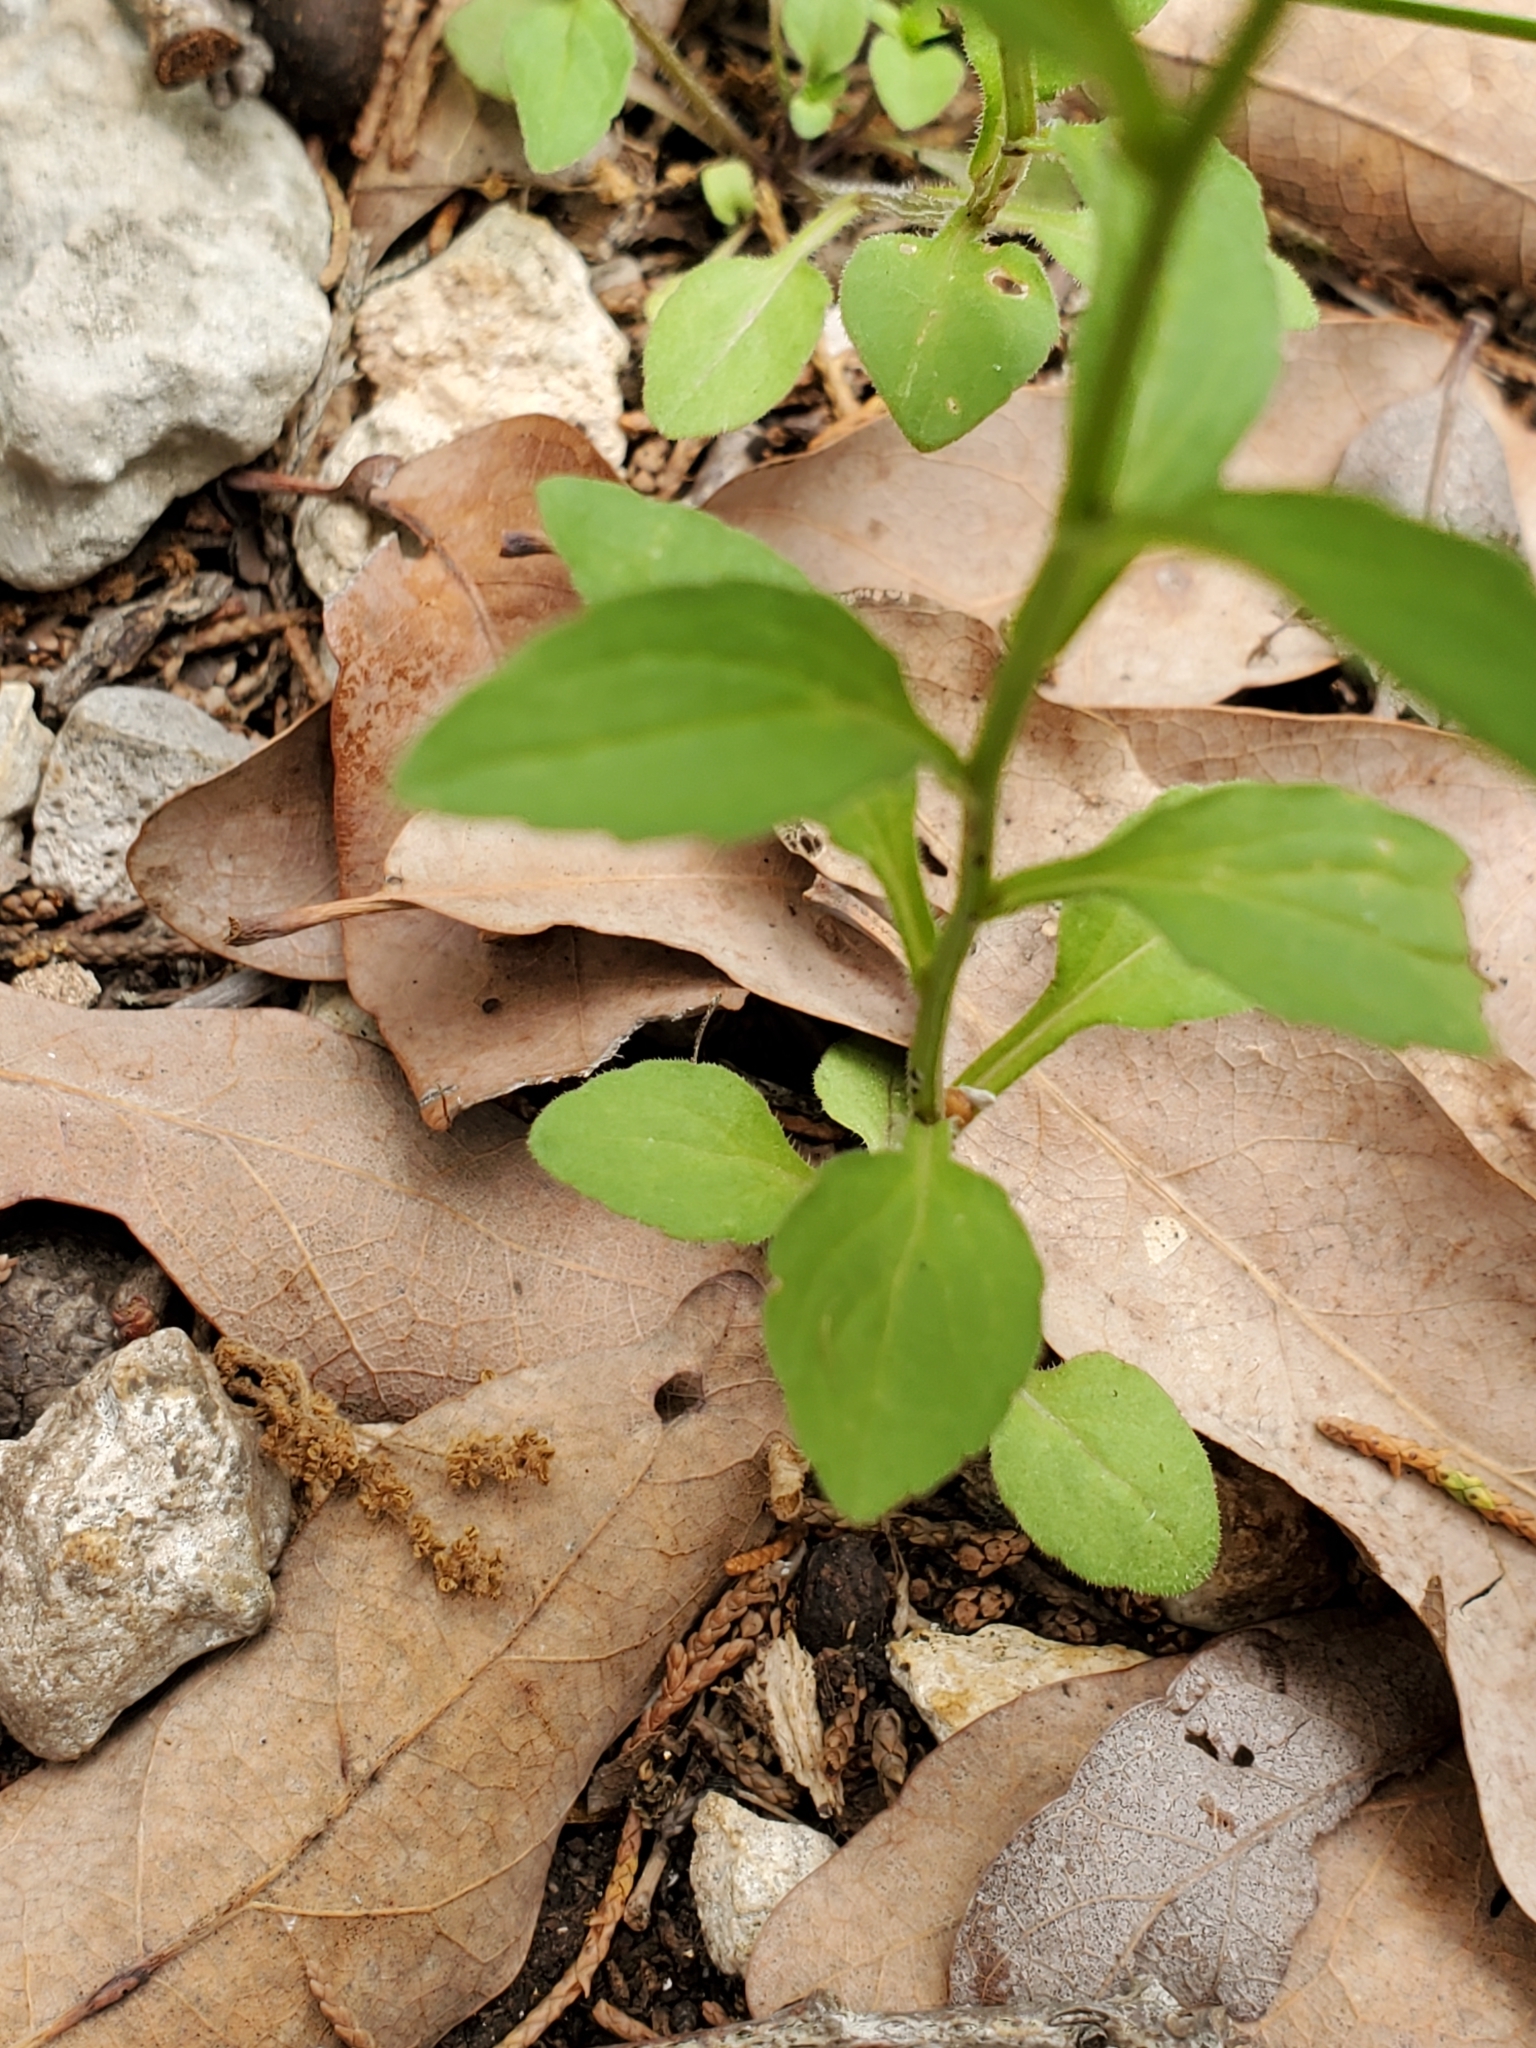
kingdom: Plantae
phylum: Tracheophyta
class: Magnoliopsida
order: Asterales
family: Campanulaceae
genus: Triodanis
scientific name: Triodanis coloradoensis
